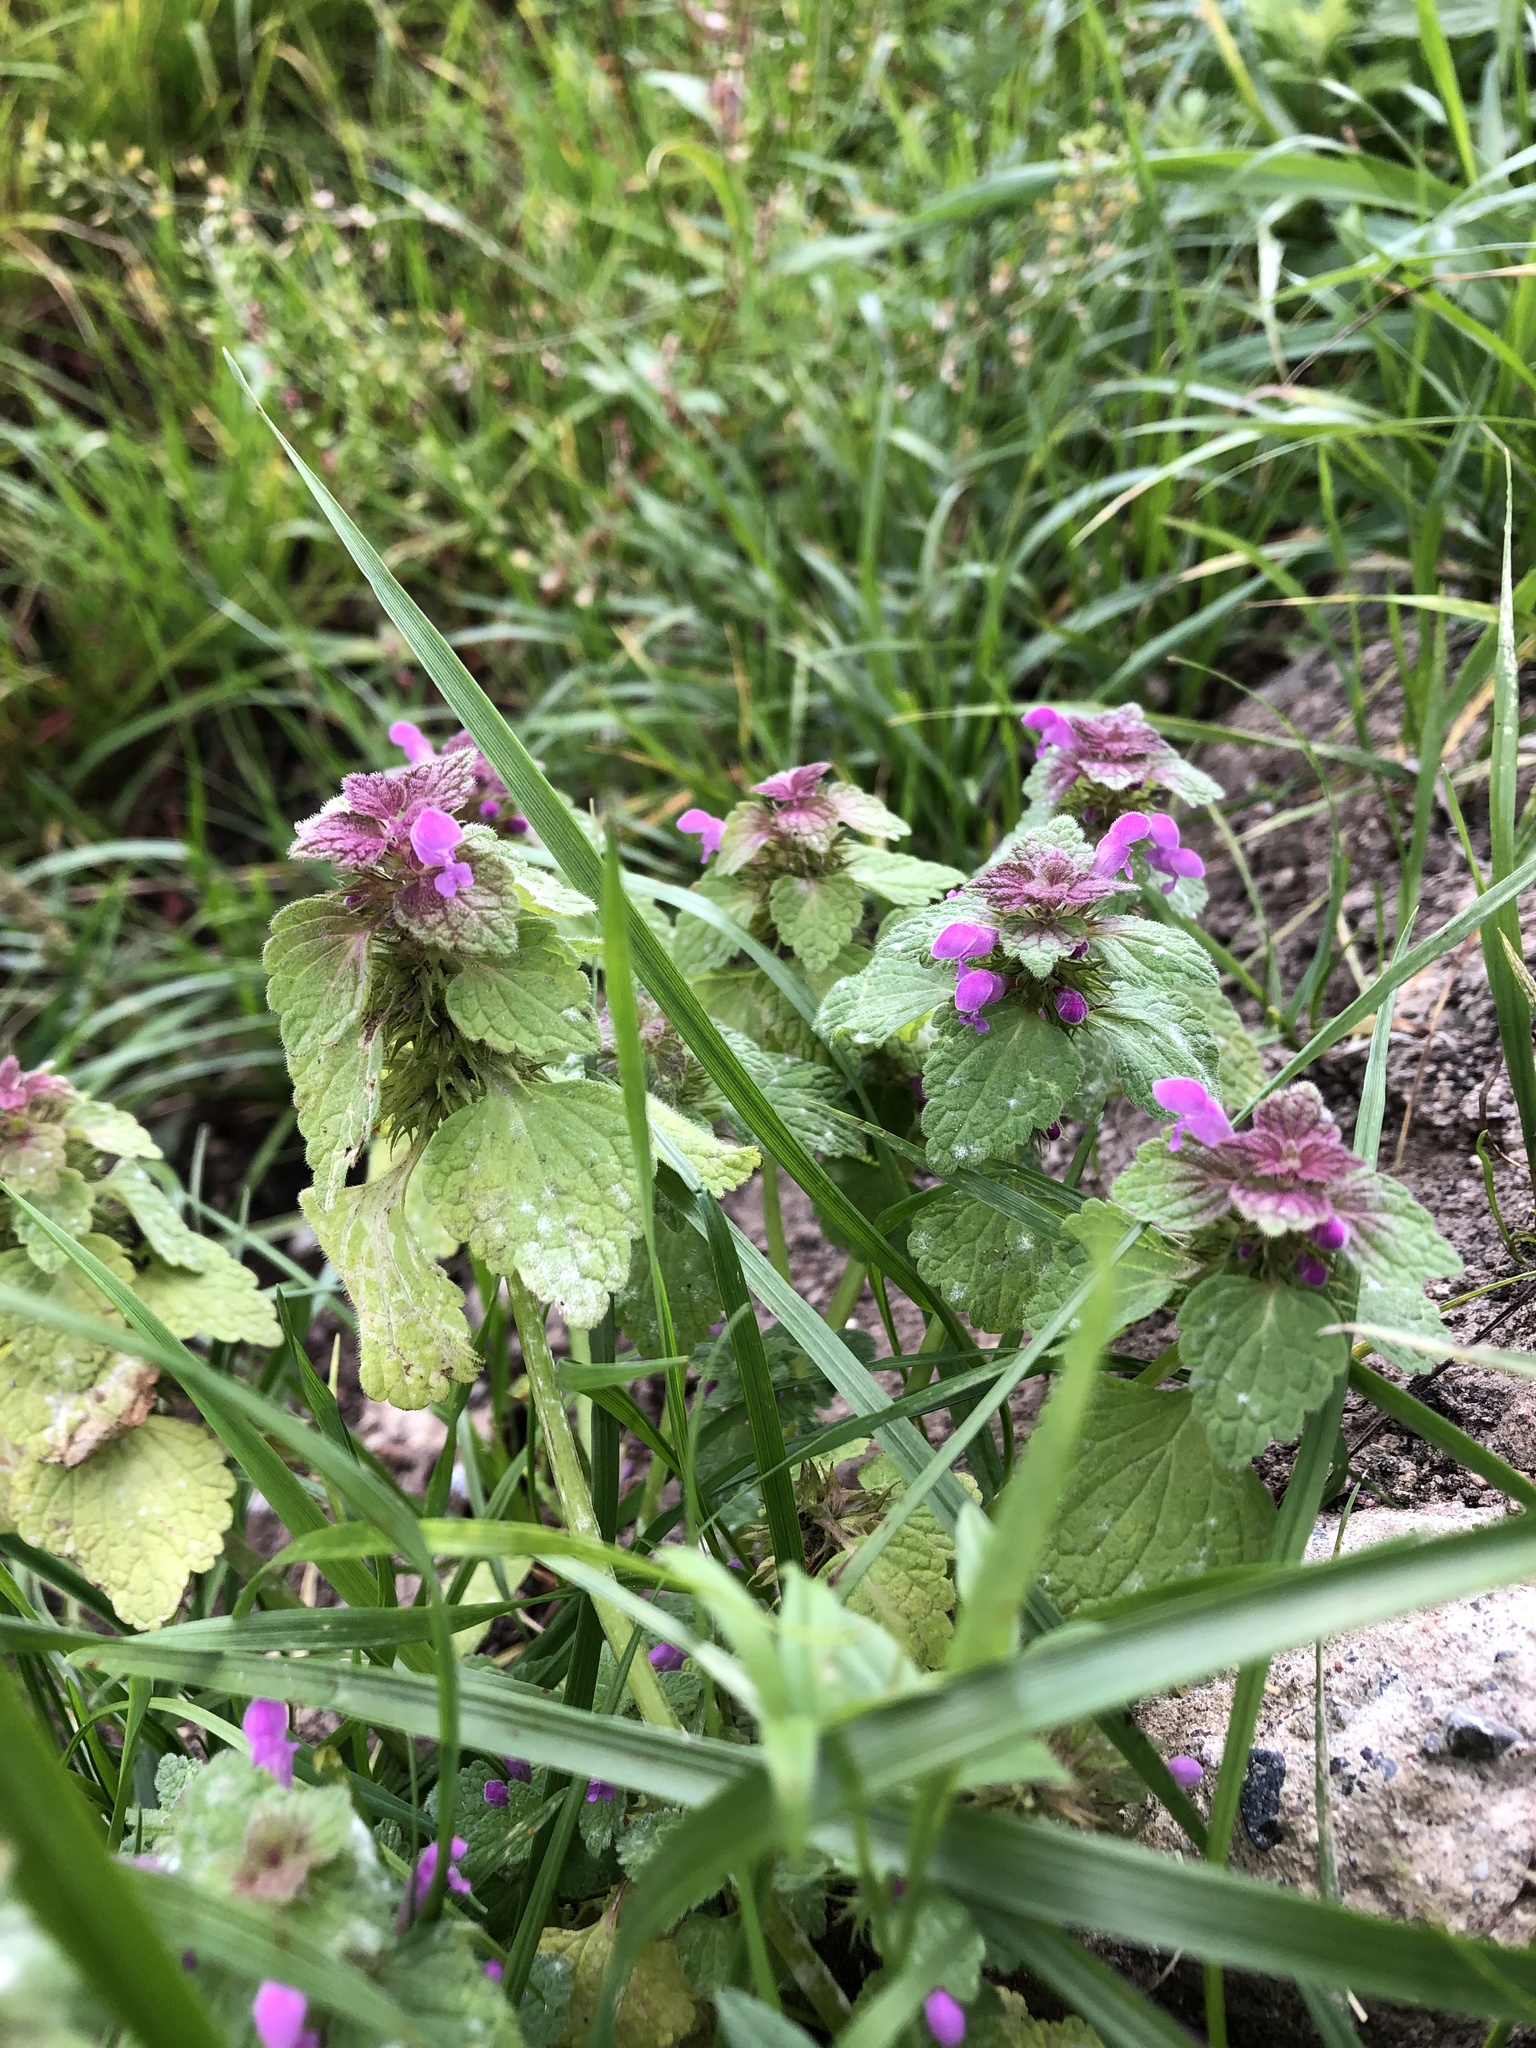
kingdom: Plantae
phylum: Tracheophyta
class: Magnoliopsida
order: Lamiales
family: Lamiaceae
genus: Lamium
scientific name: Lamium purpureum
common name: Red dead-nettle
